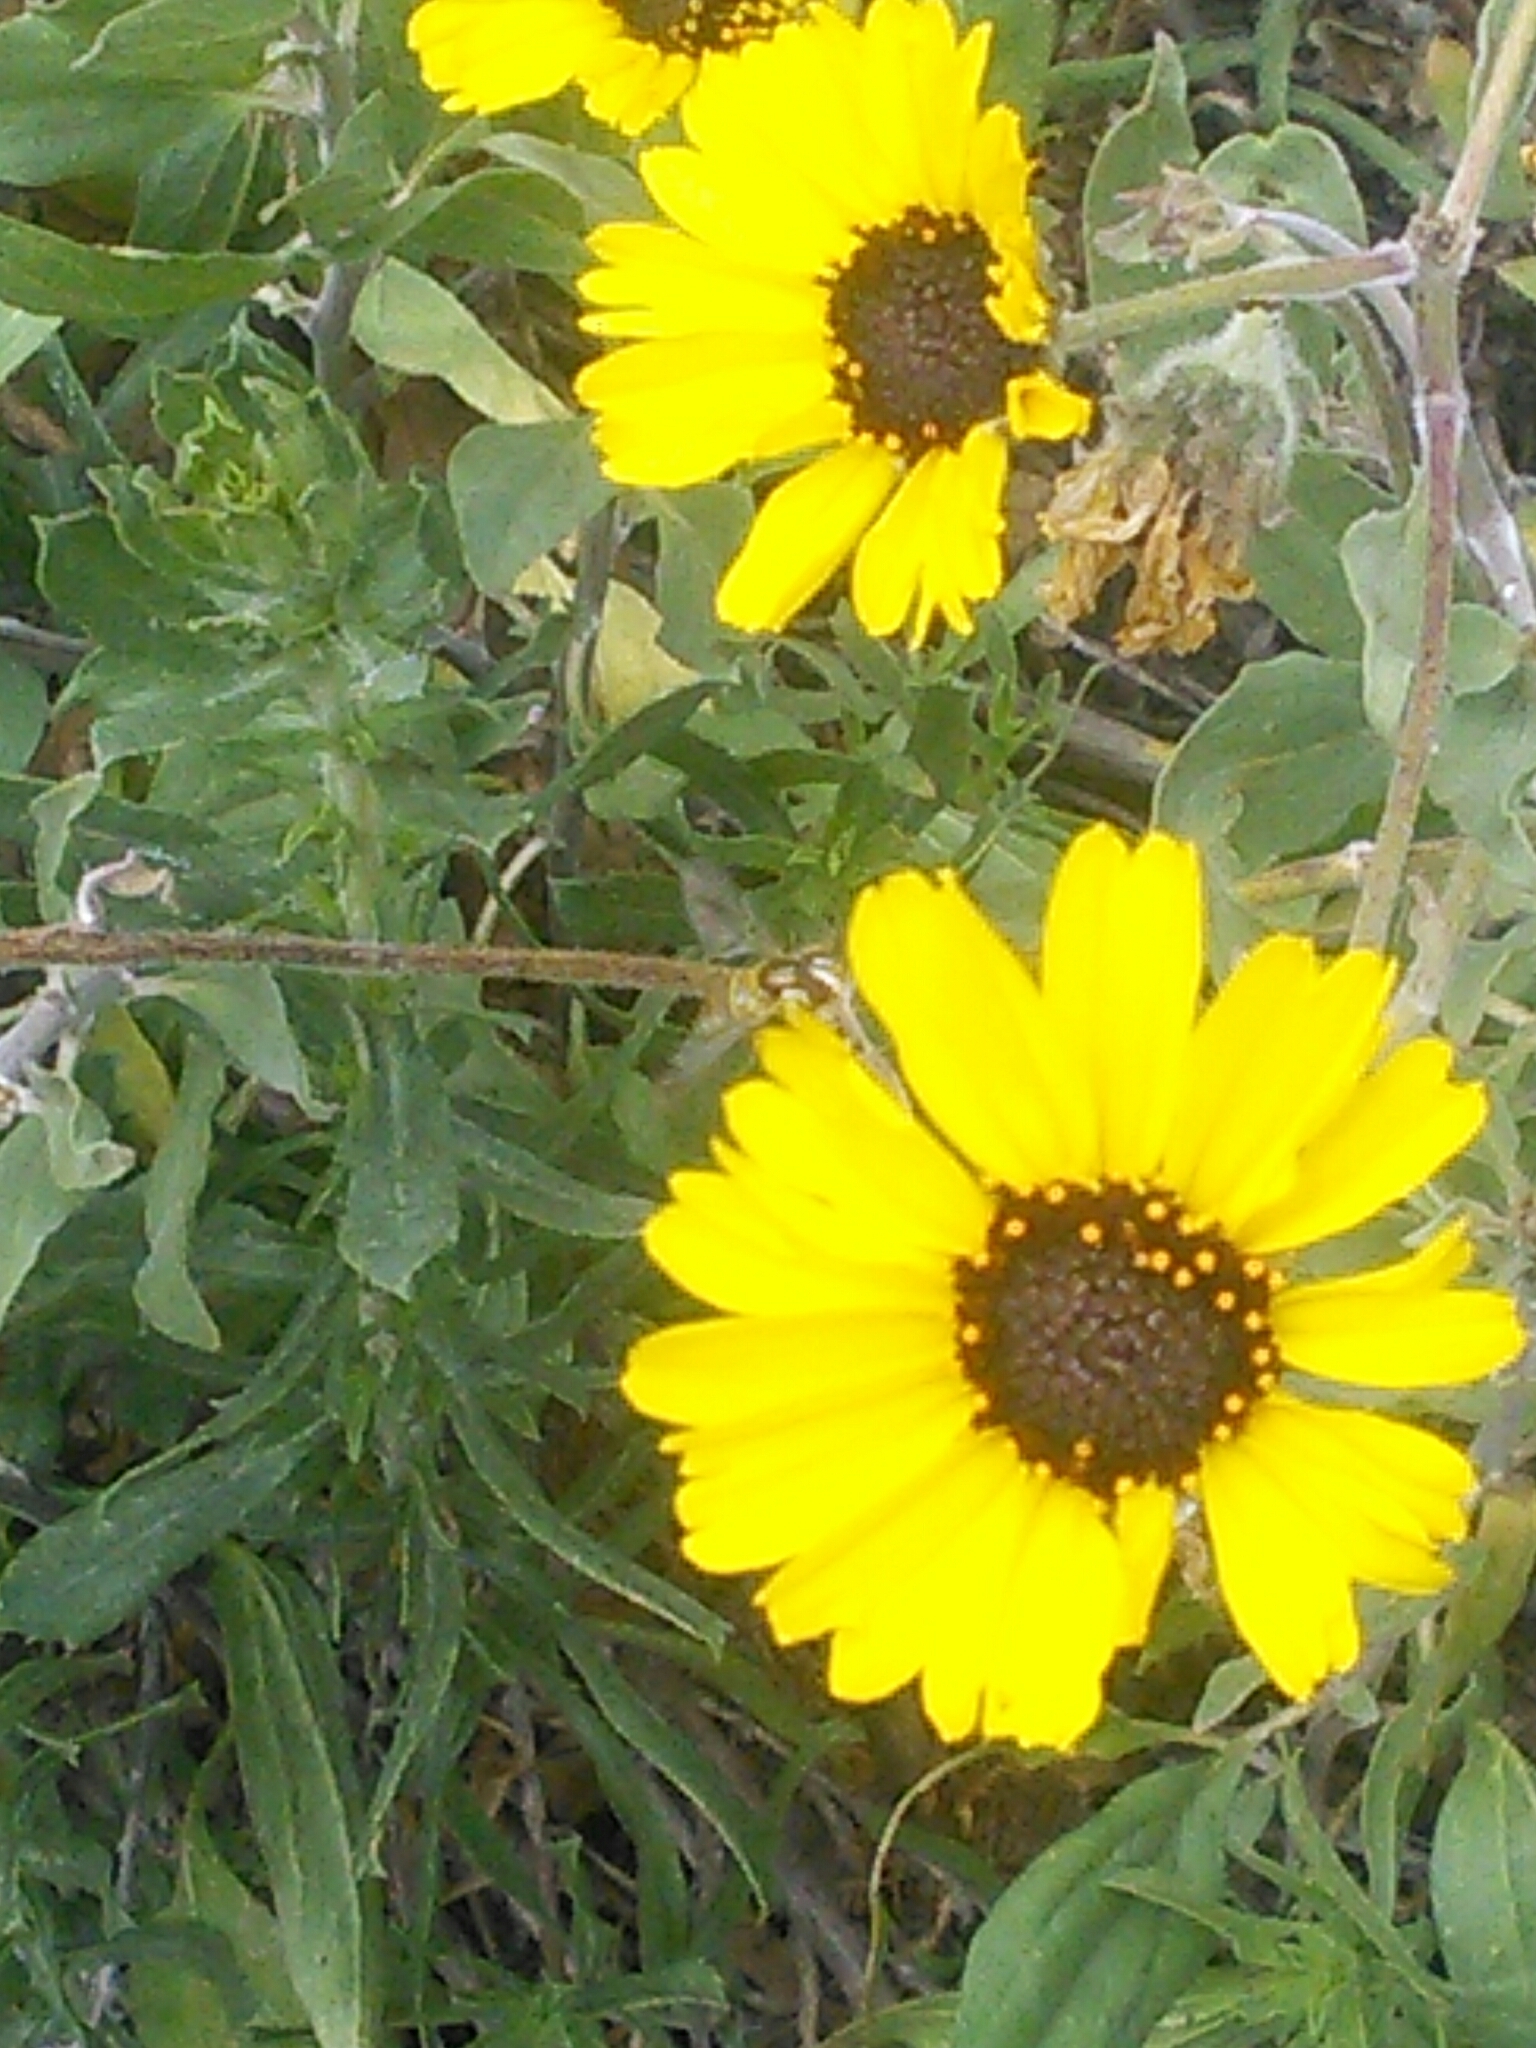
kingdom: Animalia
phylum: Arthropoda
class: Insecta
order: Diptera
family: Syrphidae
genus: Allograpta
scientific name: Allograpta obliqua
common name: Common oblique syrphid
